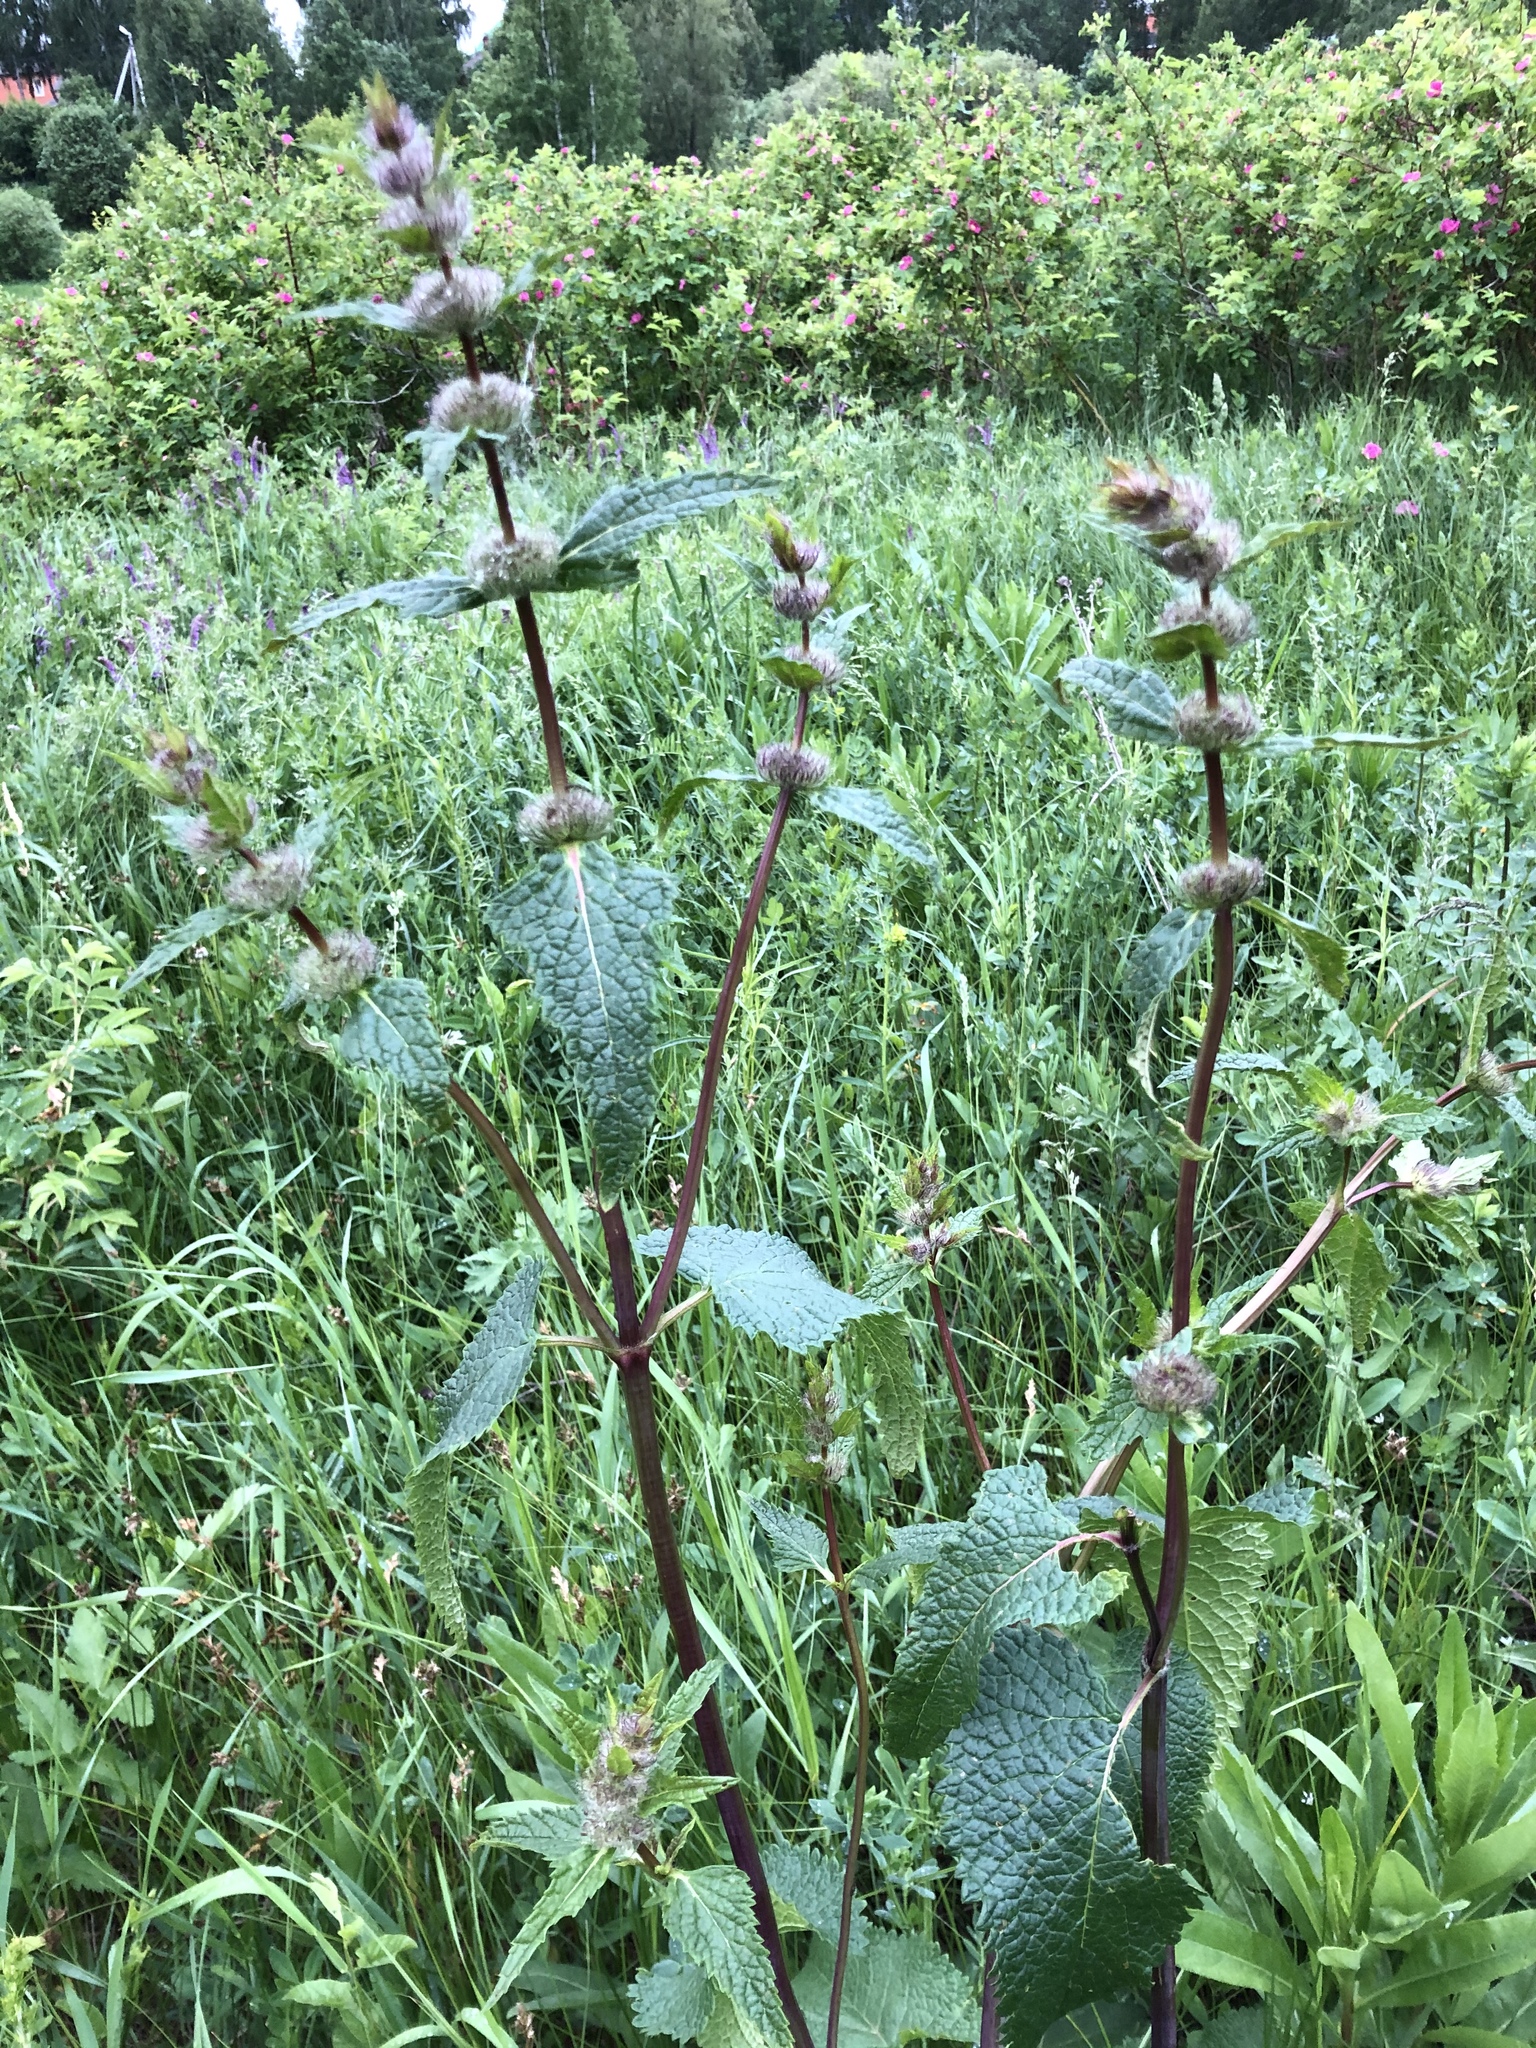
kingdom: Plantae
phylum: Tracheophyta
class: Magnoliopsida
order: Lamiales
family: Lamiaceae
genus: Phlomoides
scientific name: Phlomoides tuberosa
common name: Tuberous jerusalem sage
